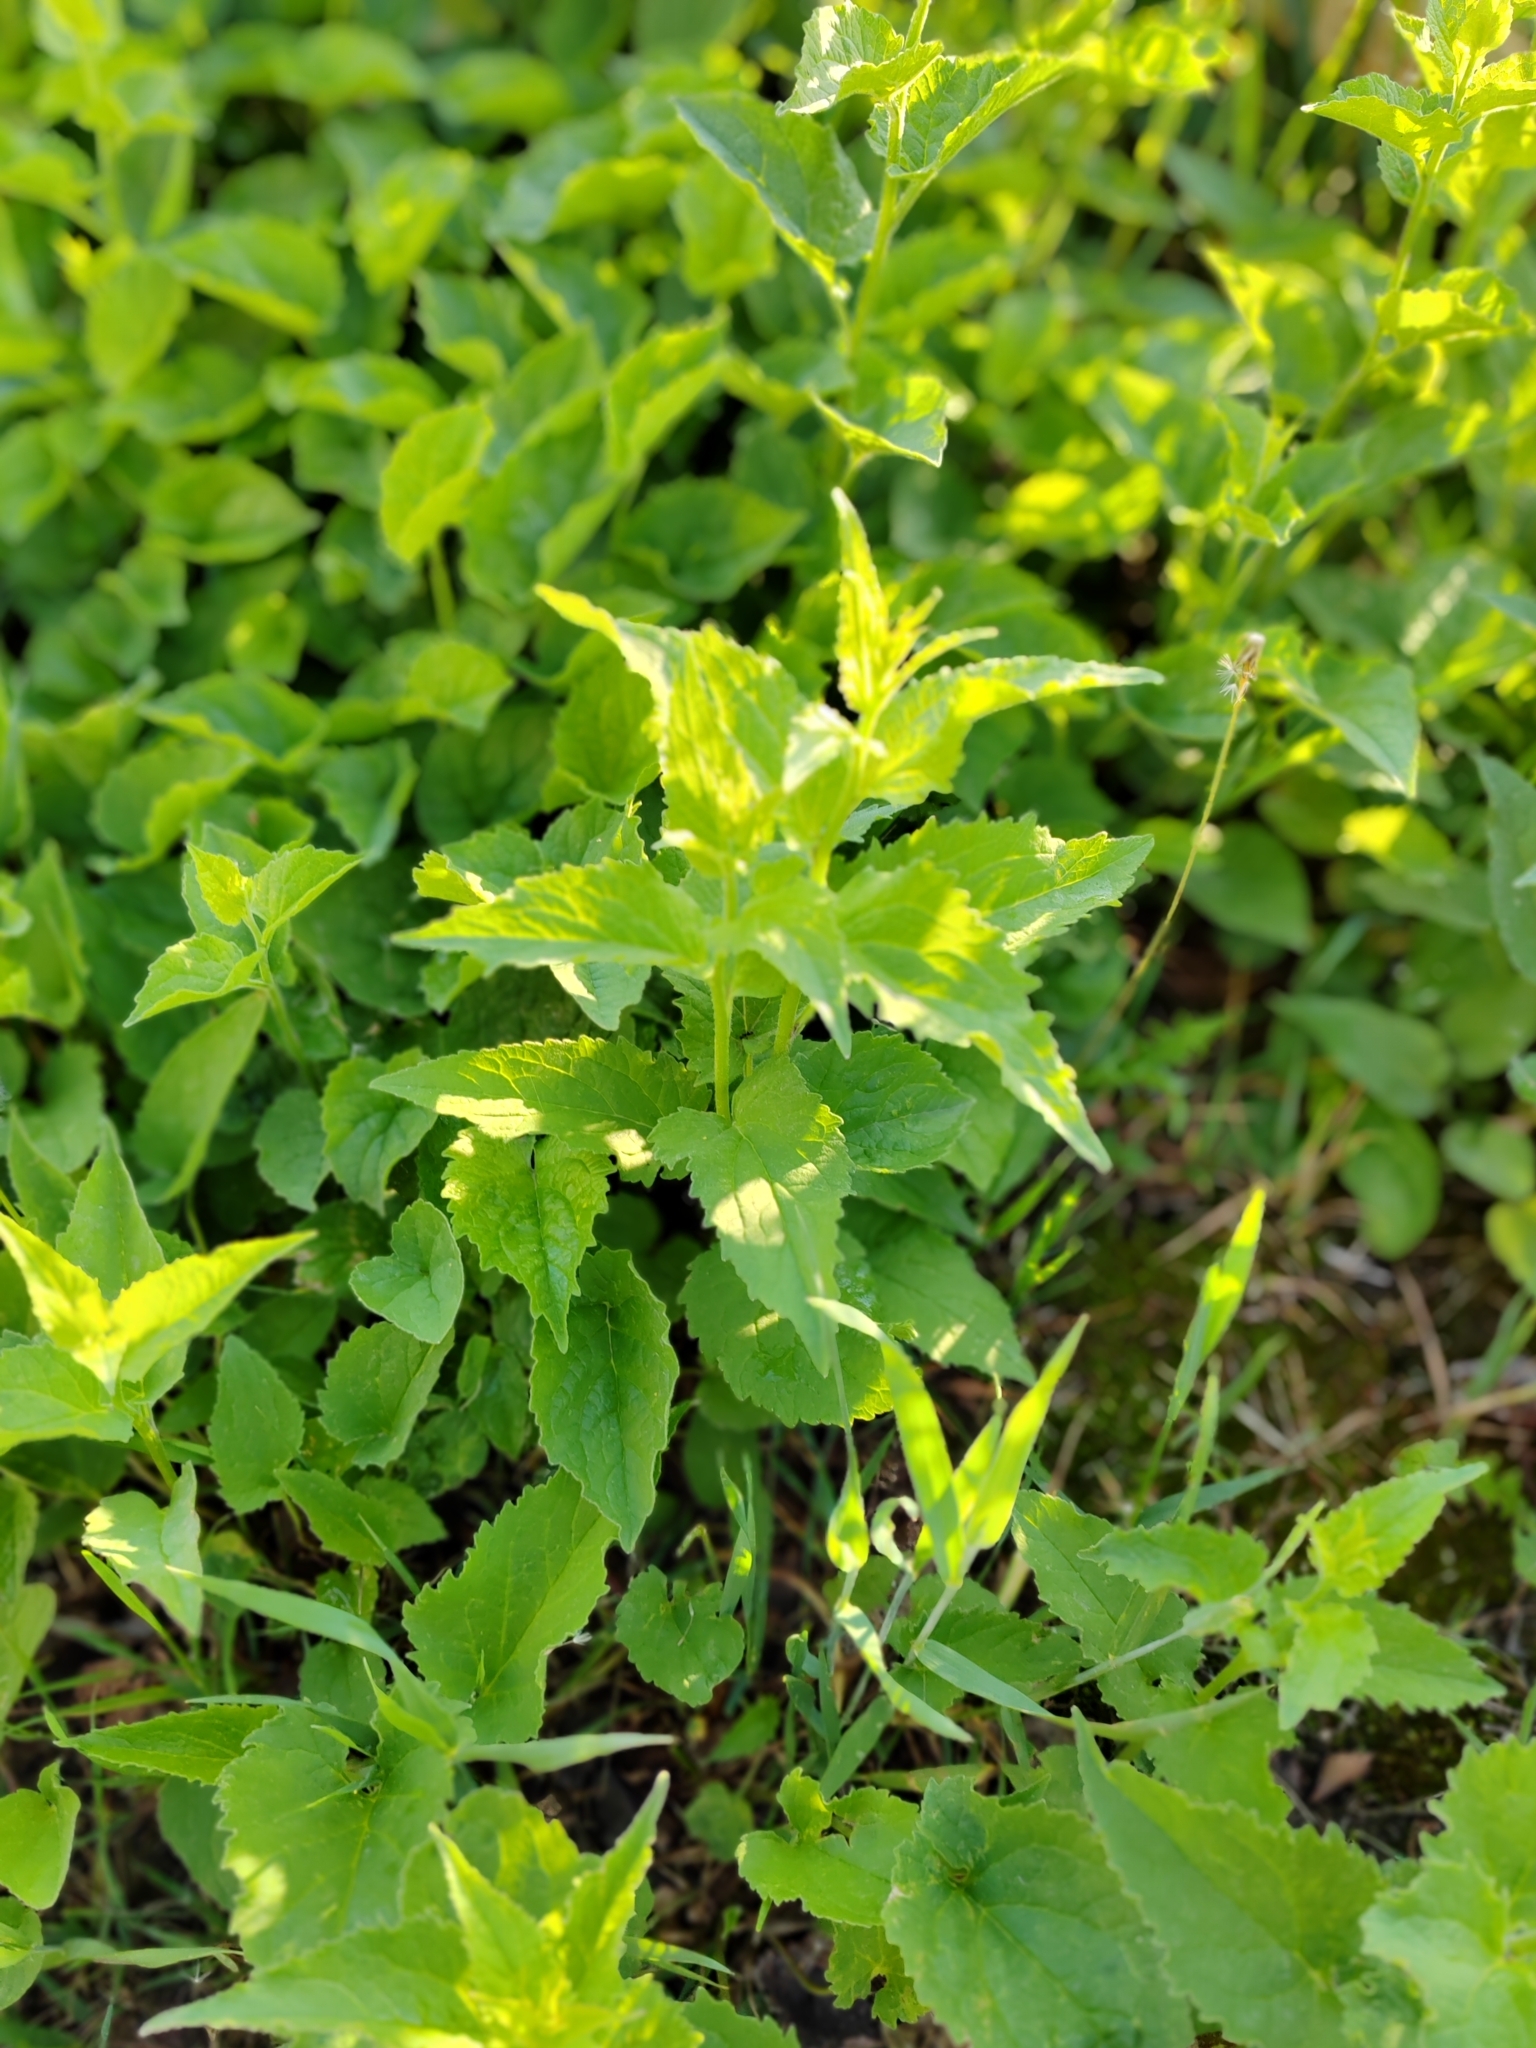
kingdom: Plantae
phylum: Tracheophyta
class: Magnoliopsida
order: Asterales
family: Campanulaceae
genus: Campanula
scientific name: Campanula rapunculoides
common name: Creeping bellflower
